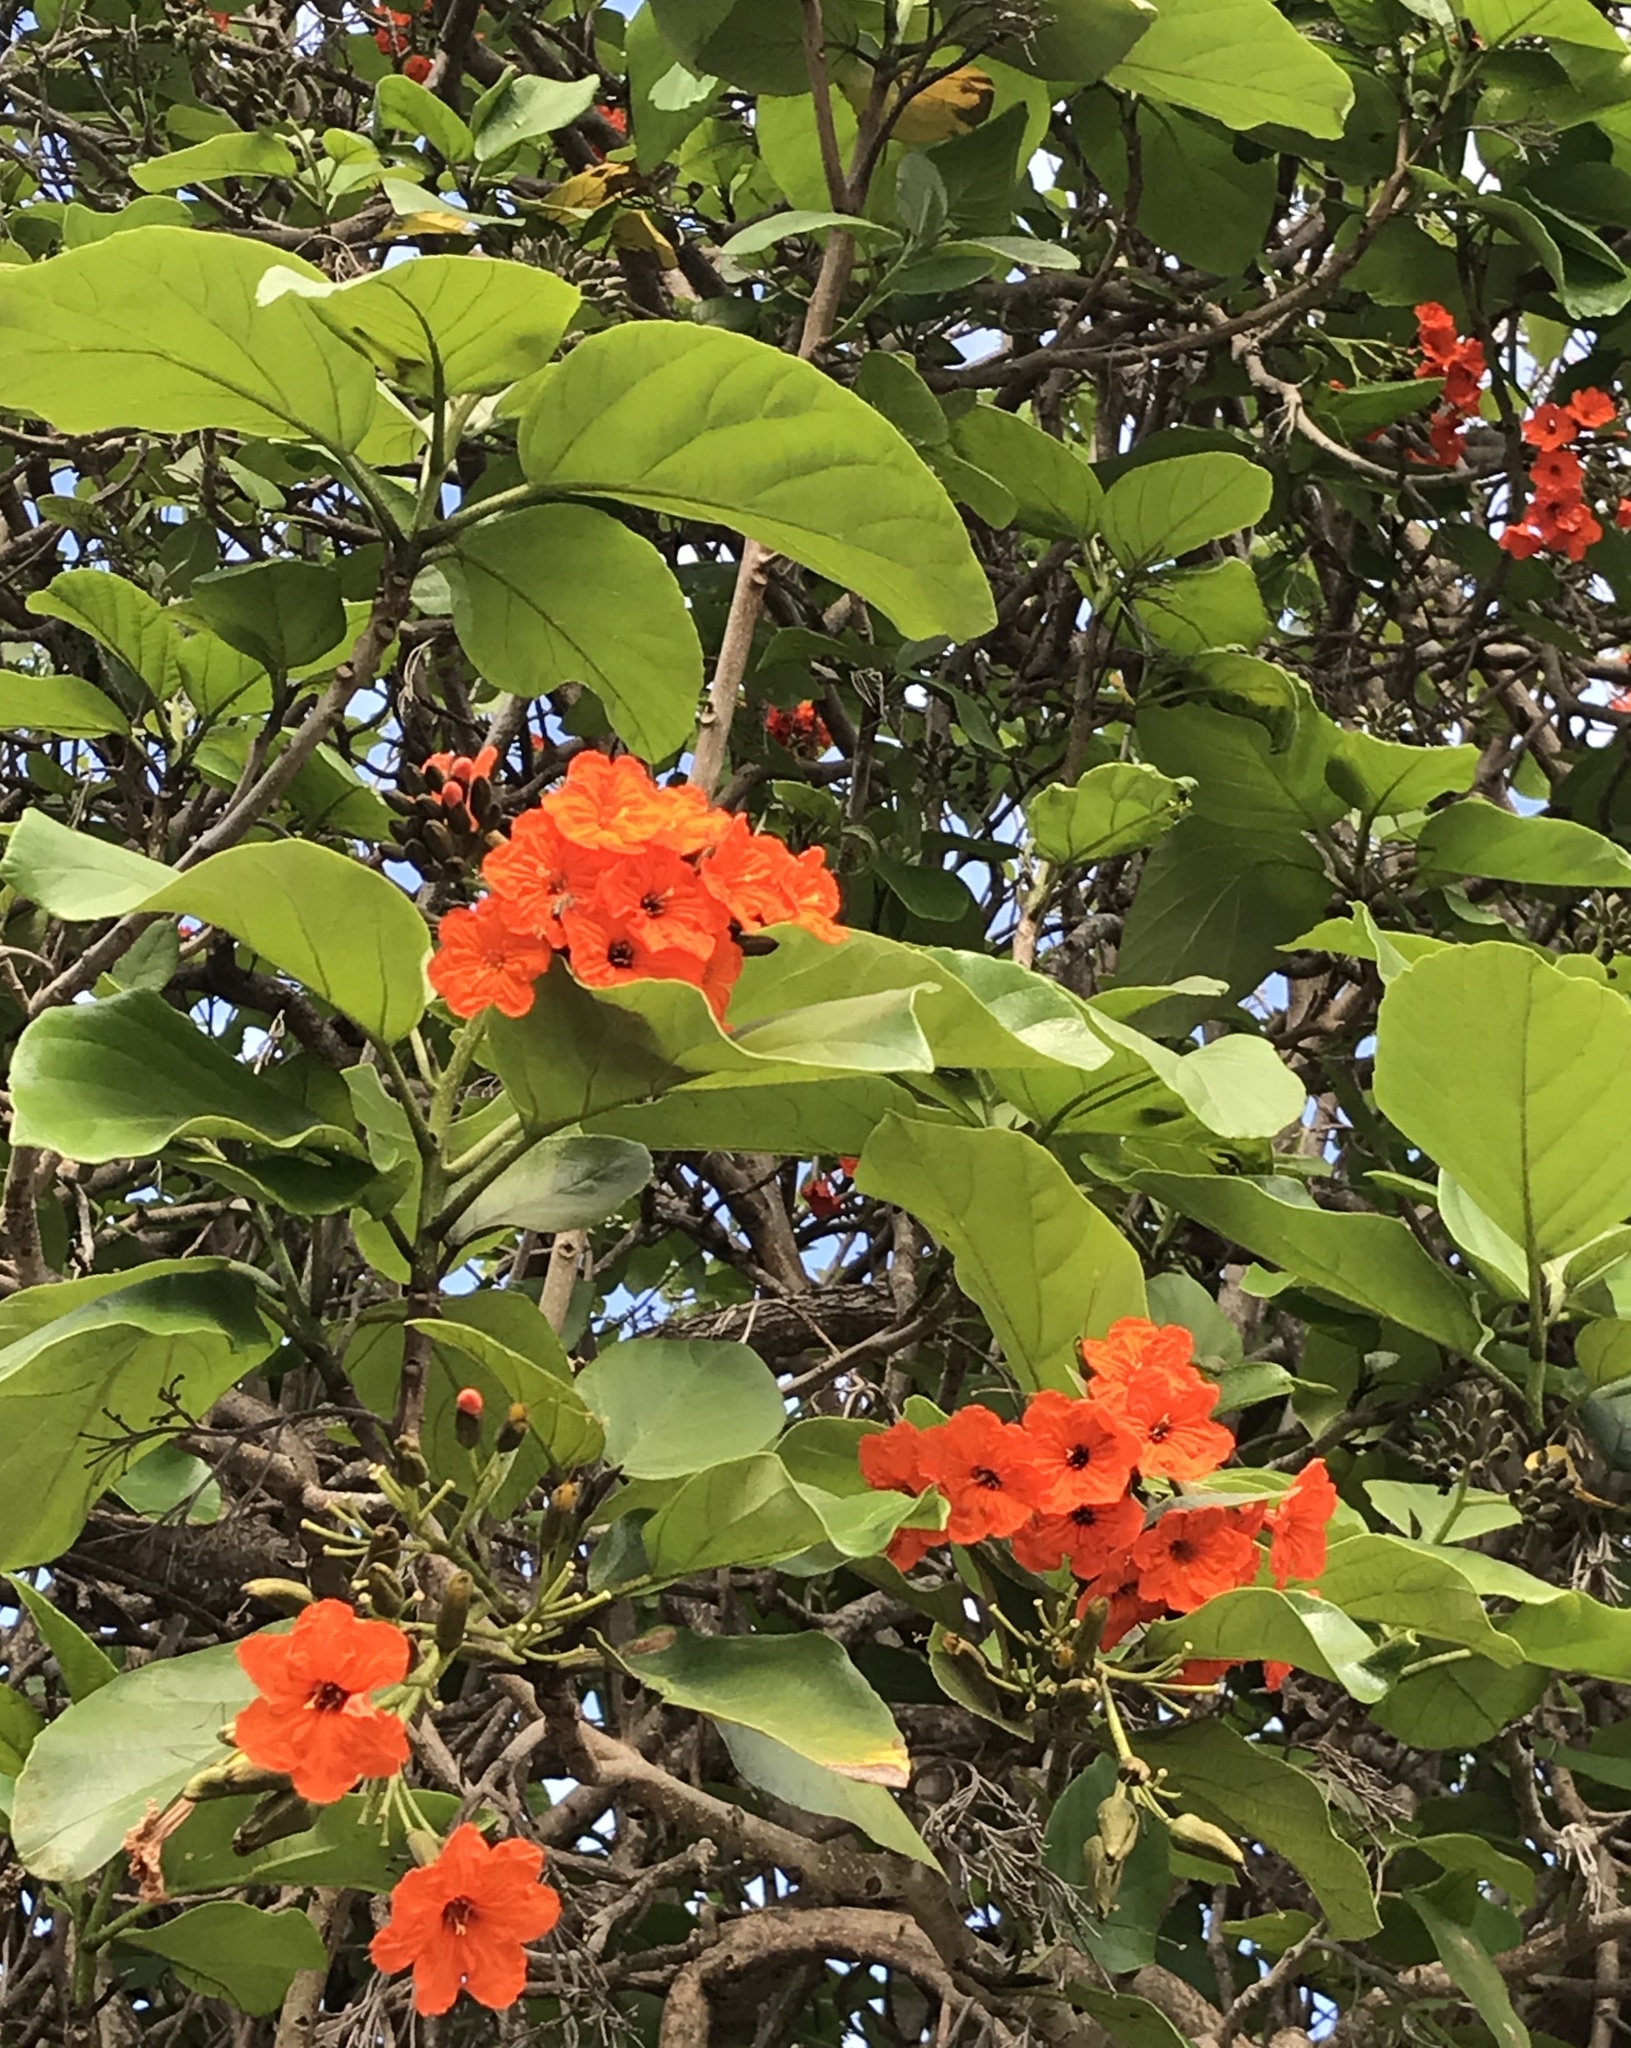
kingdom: Plantae
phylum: Tracheophyta
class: Magnoliopsida
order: Boraginales
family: Cordiaceae
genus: Cordia
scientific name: Cordia sebestena
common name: Largeleaf geigertree
